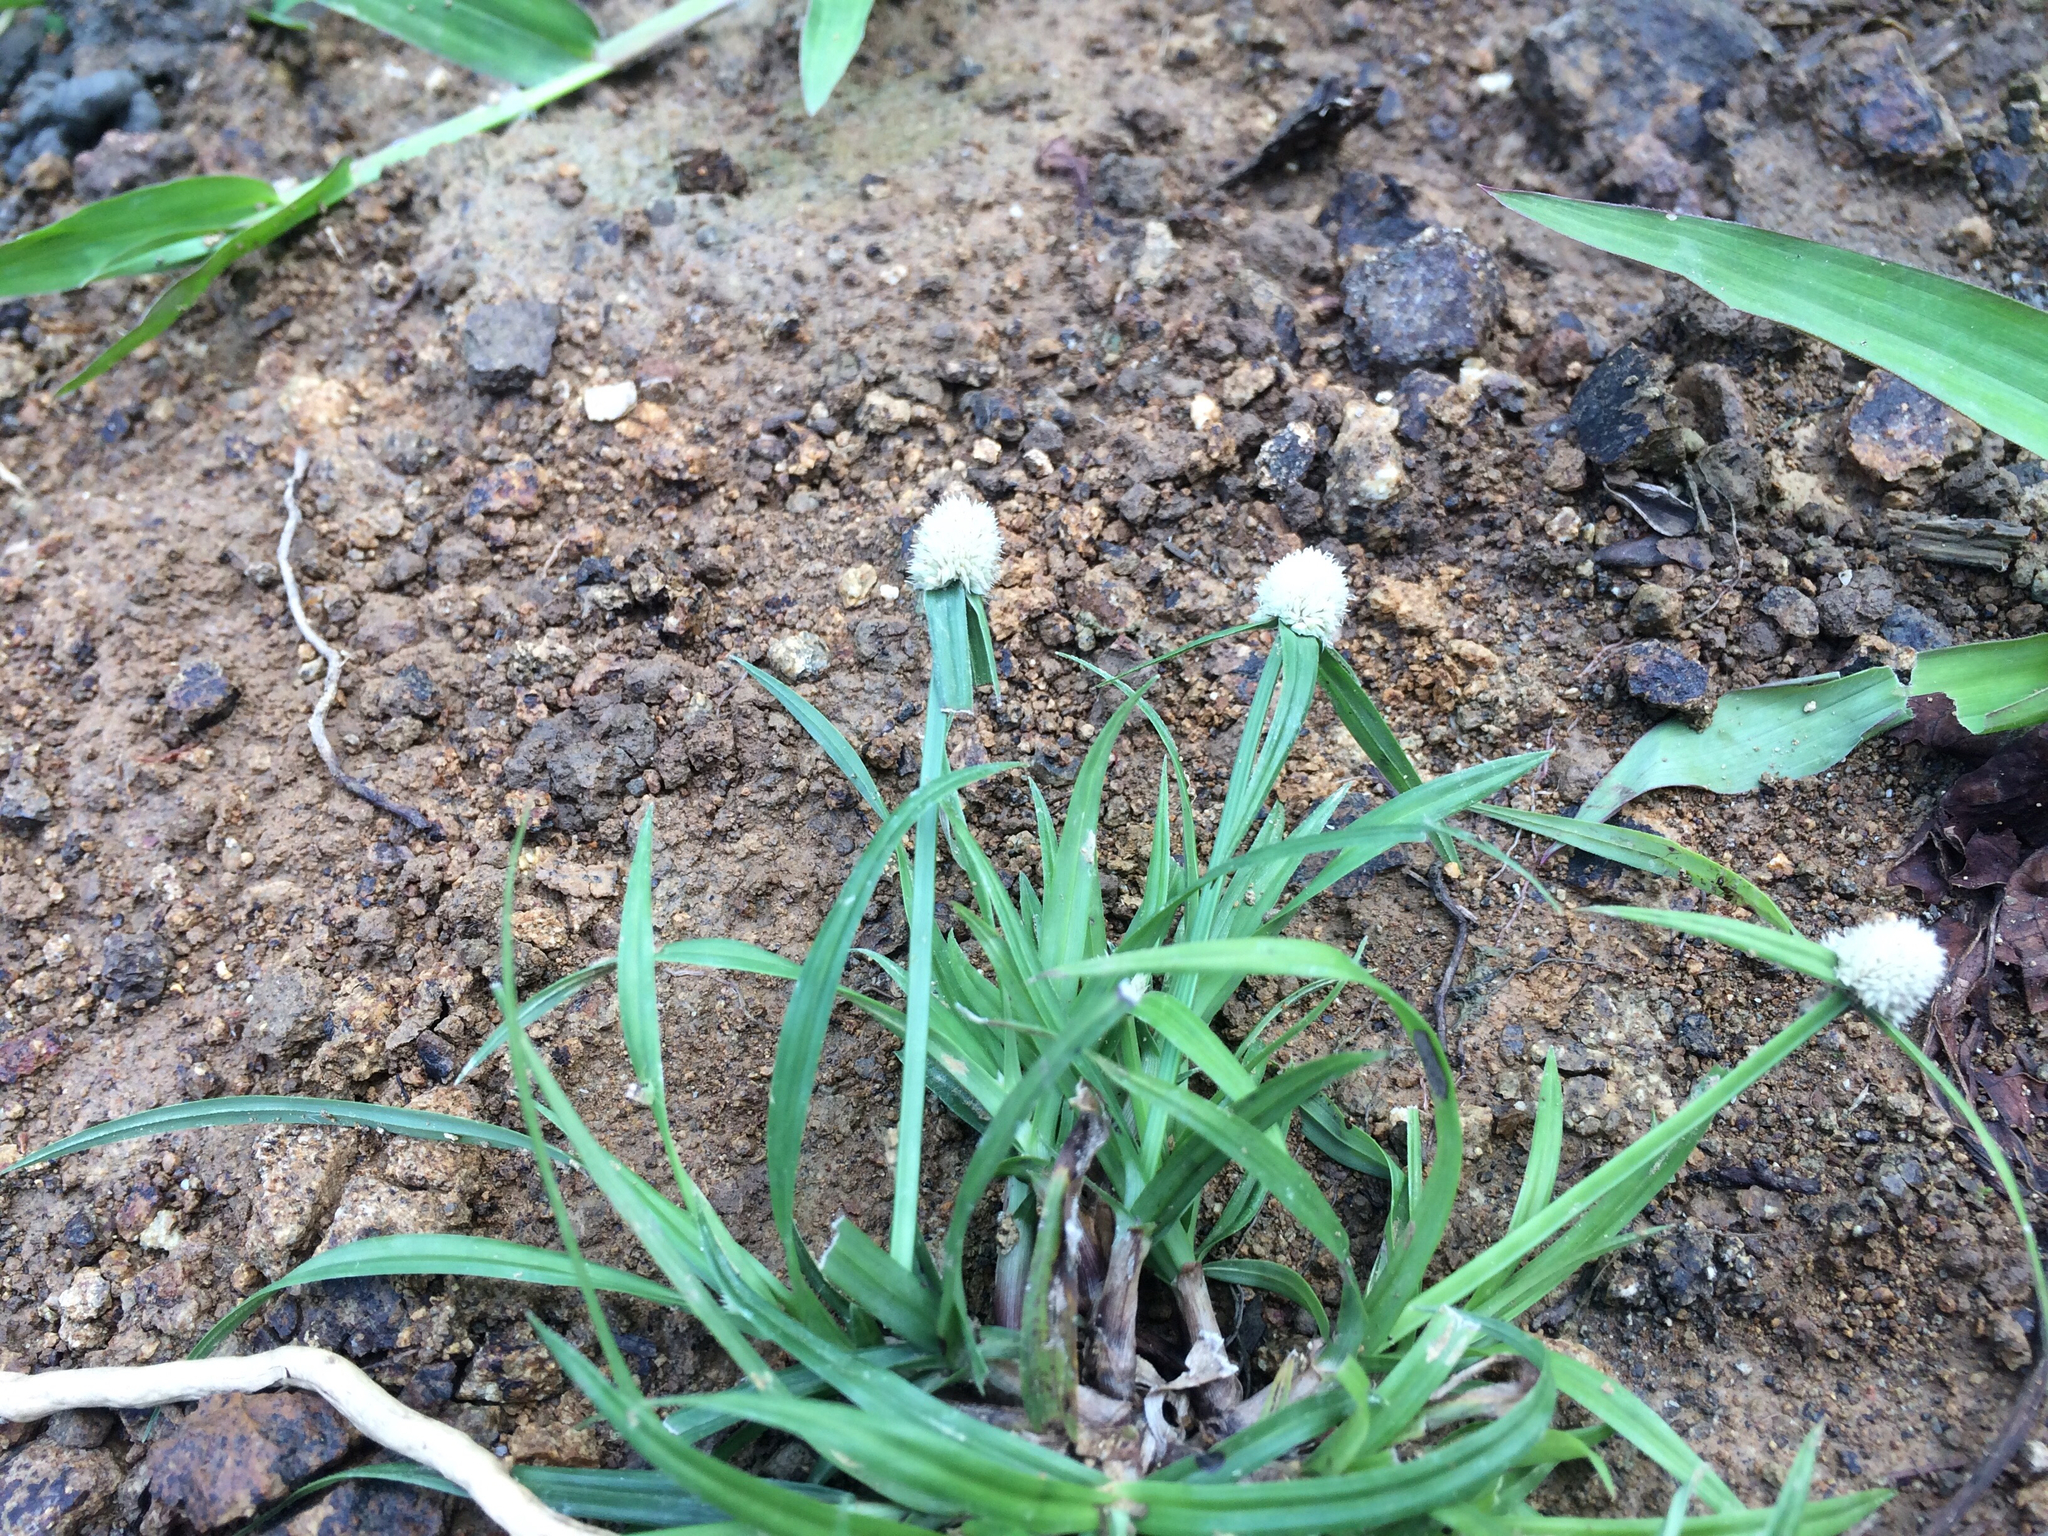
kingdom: Plantae
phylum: Tracheophyta
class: Liliopsida
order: Poales
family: Cyperaceae
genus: Cyperus
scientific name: Cyperus mindorensis
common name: Flatsedge
